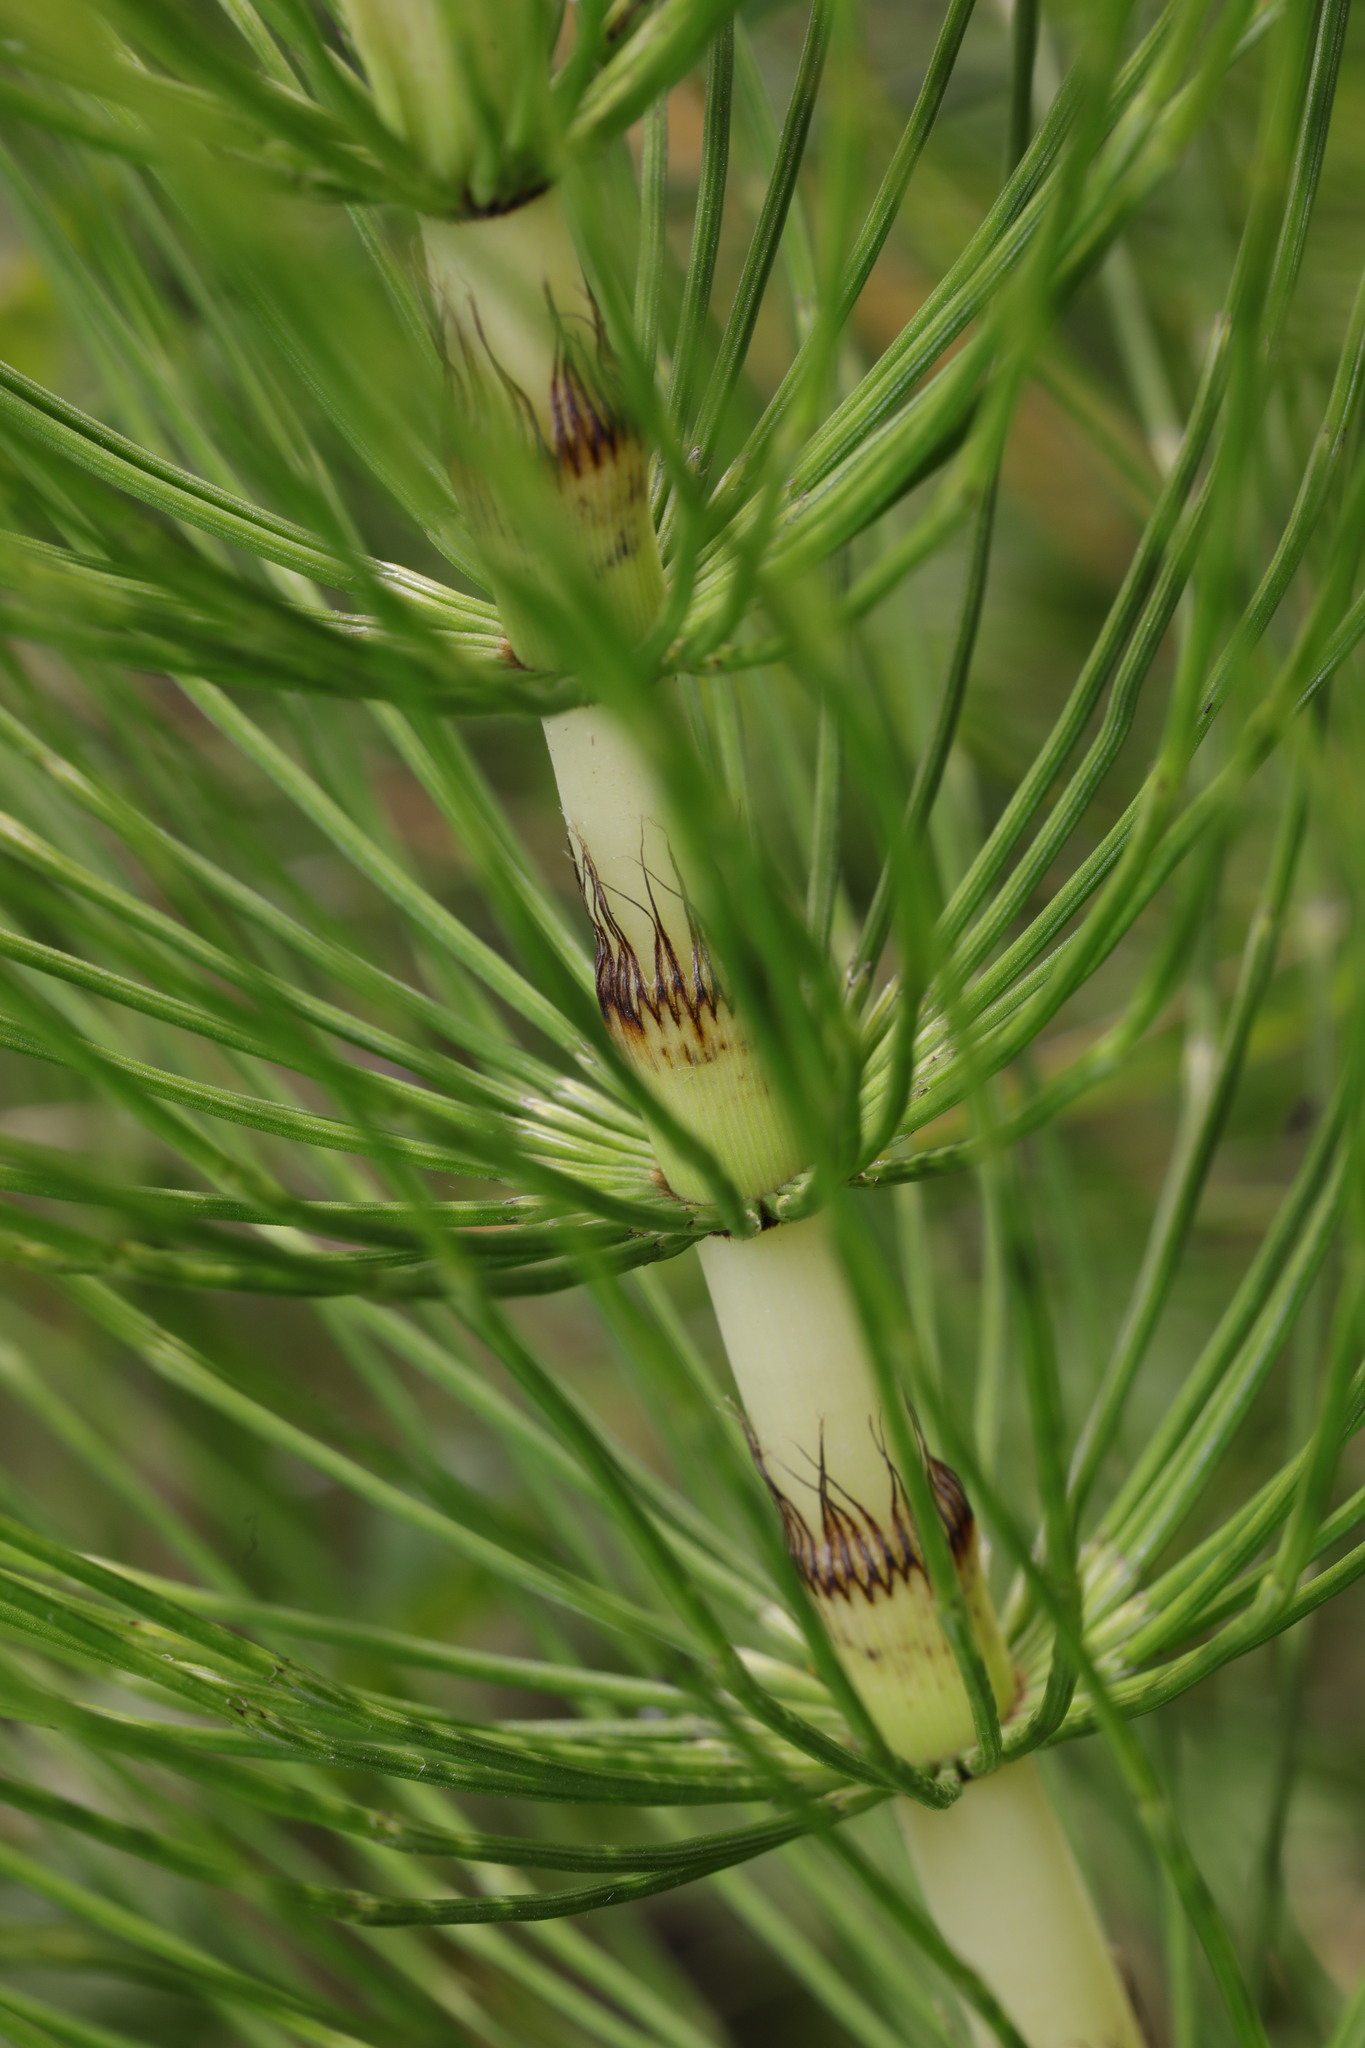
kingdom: Plantae
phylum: Tracheophyta
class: Polypodiopsida
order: Equisetales
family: Equisetaceae
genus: Equisetum
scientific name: Equisetum telmateia
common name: Great horsetail
